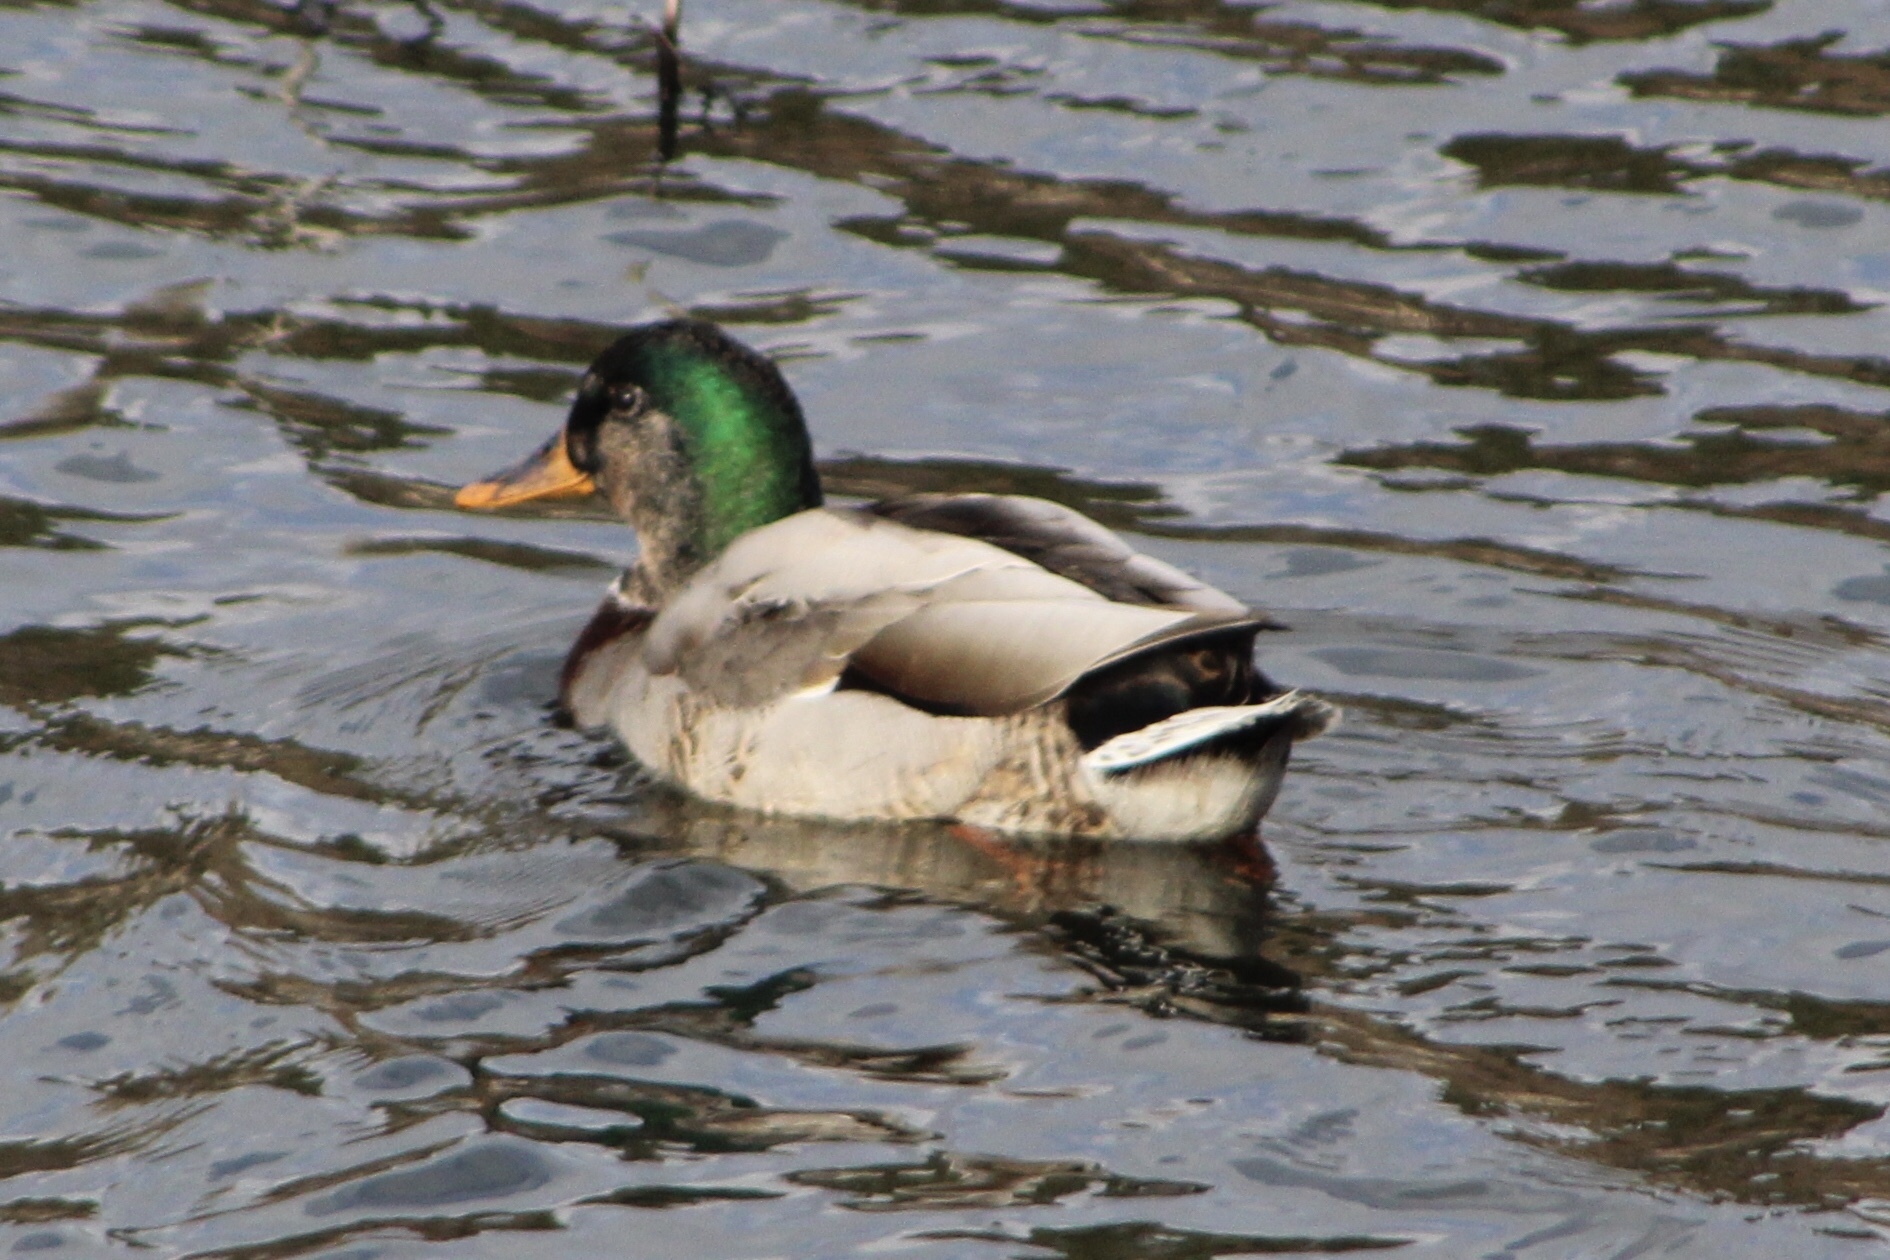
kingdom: Animalia
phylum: Chordata
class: Aves
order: Anseriformes
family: Anatidae
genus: Anas
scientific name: Anas platyrhynchos
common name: Mallard
